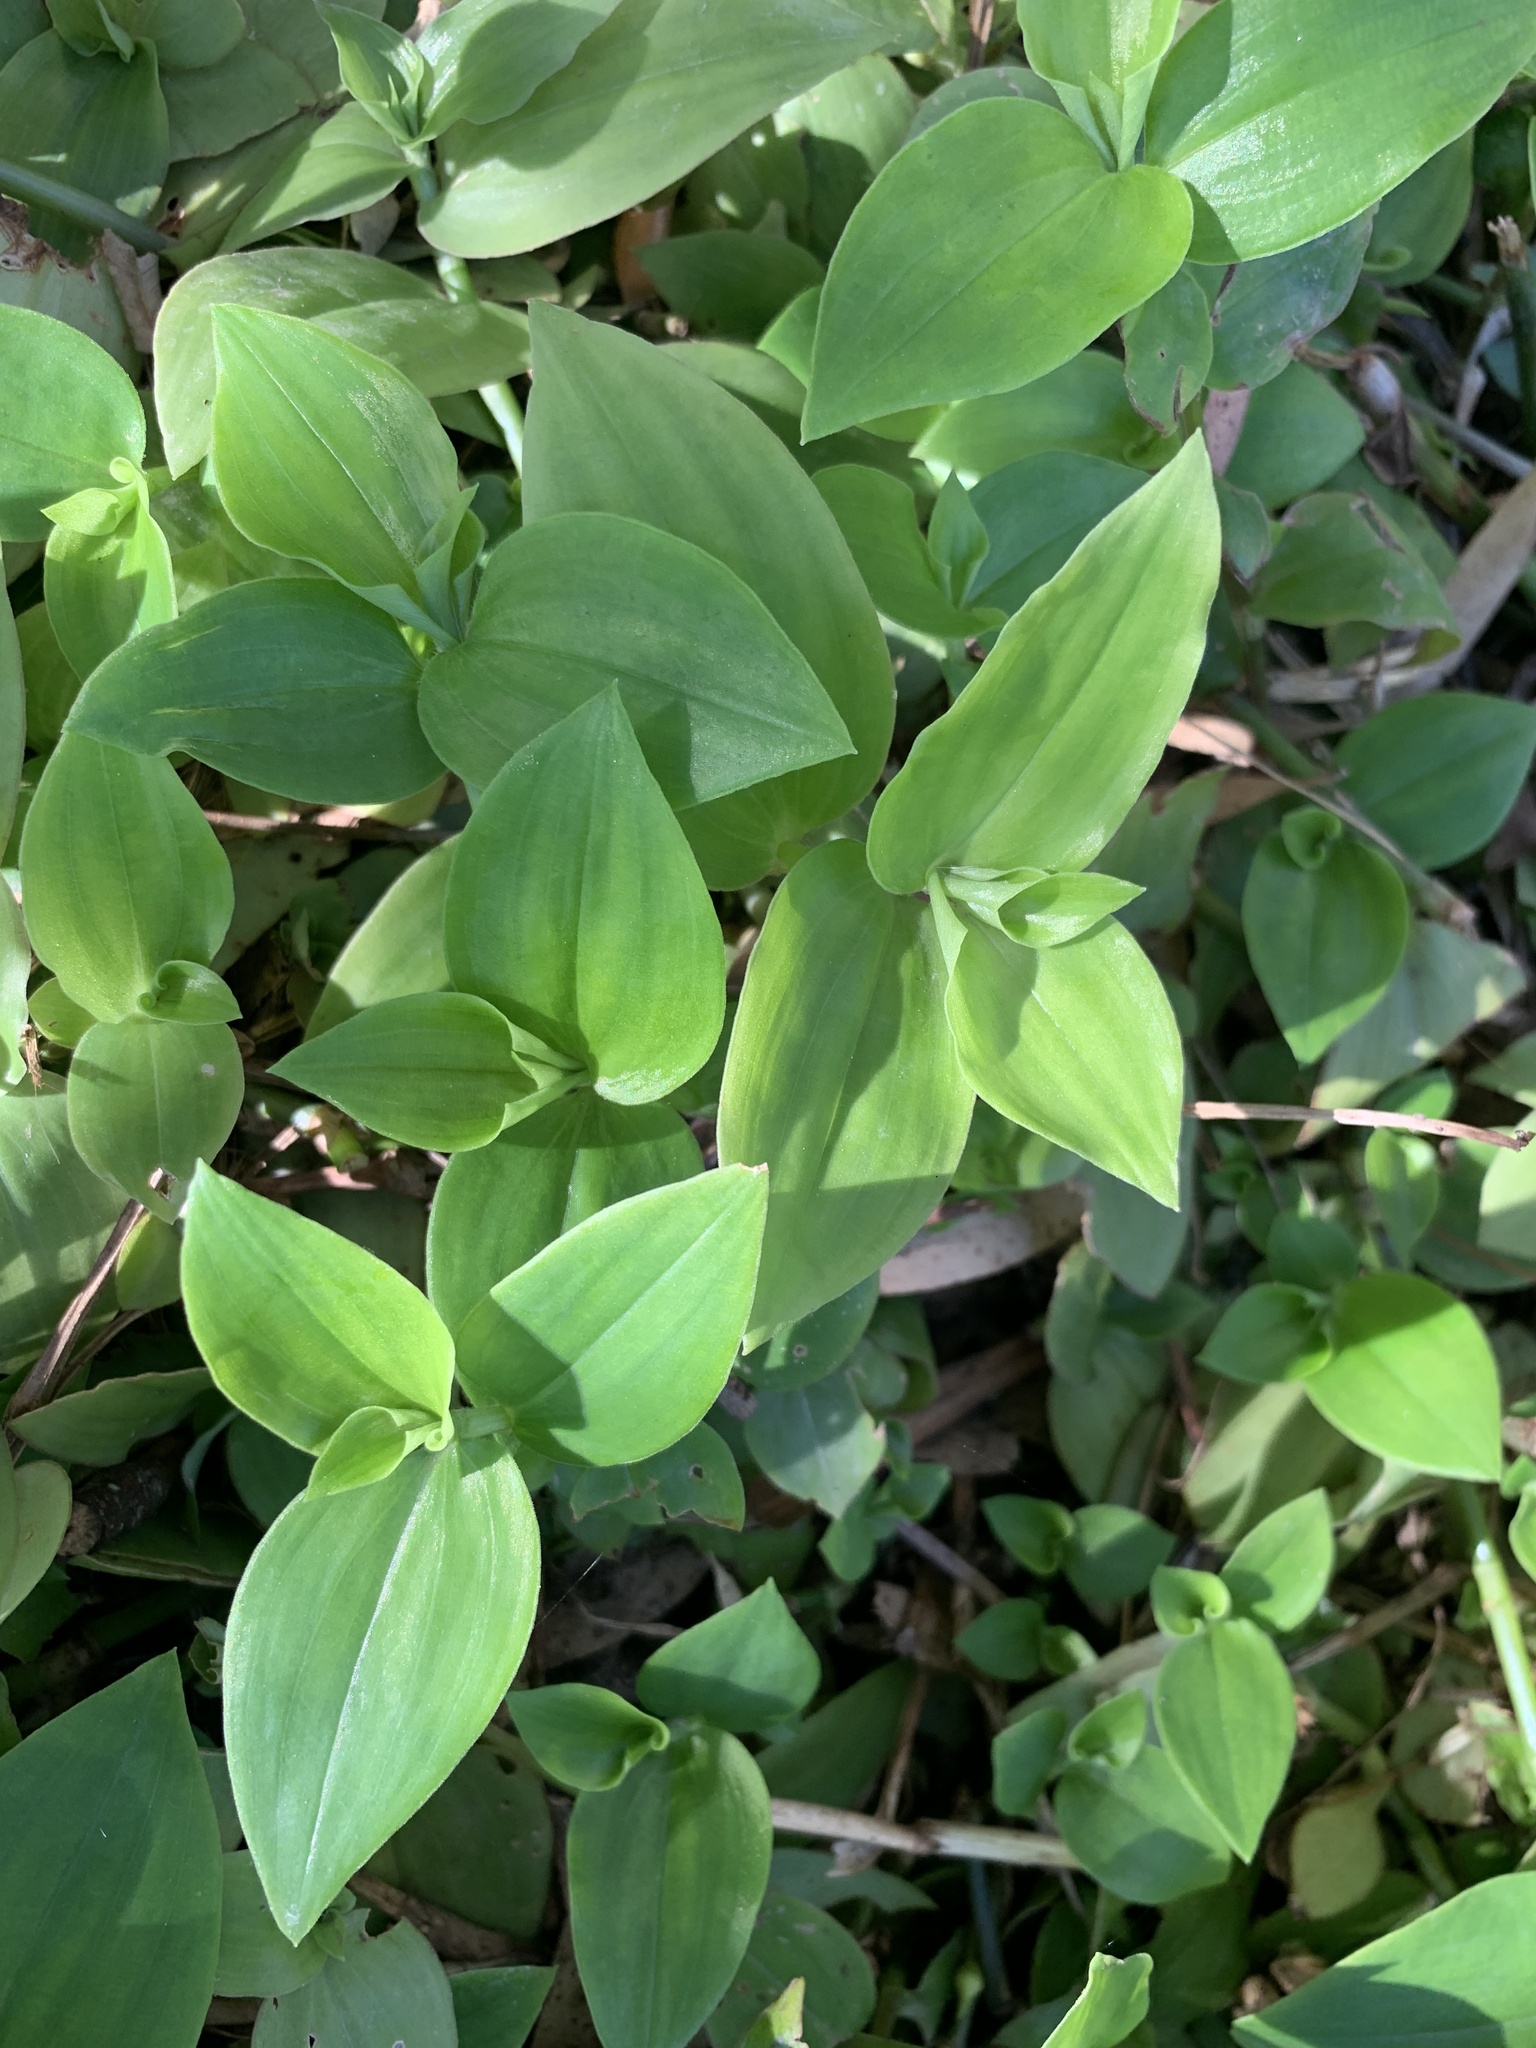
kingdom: Plantae
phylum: Tracheophyta
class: Liliopsida
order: Commelinales
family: Commelinaceae
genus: Tradescantia
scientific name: Tradescantia fluminensis
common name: Wandering-jew
